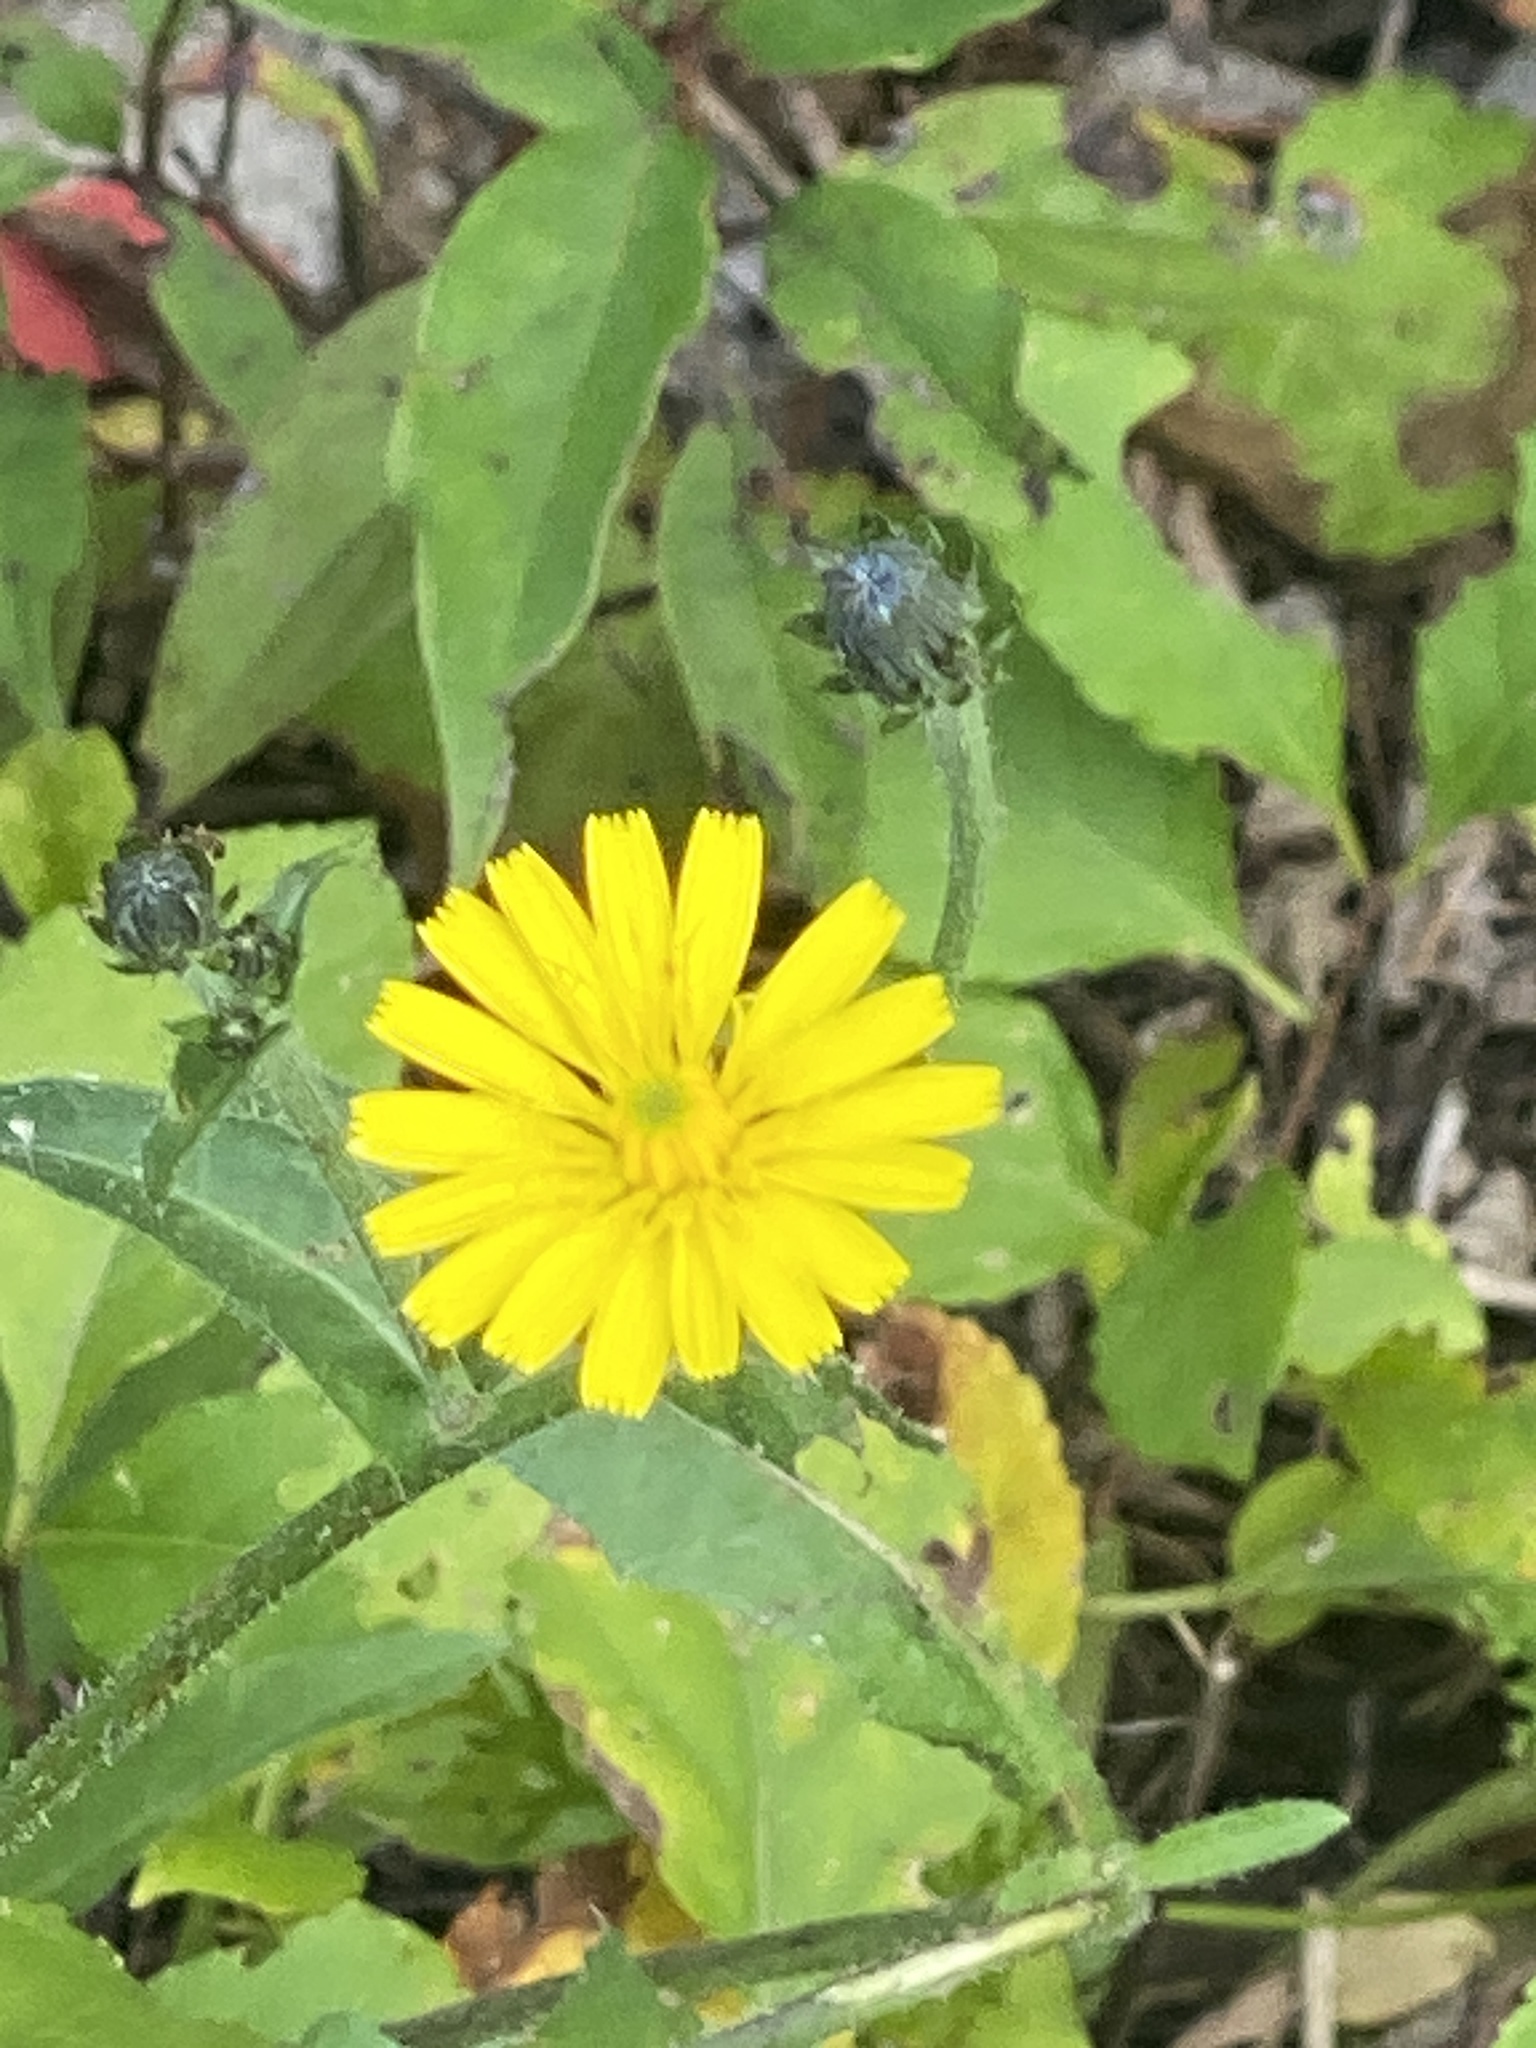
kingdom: Plantae
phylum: Tracheophyta
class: Magnoliopsida
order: Asterales
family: Asteraceae
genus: Picris
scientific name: Picris hieracioides
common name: Hawkweed oxtongue
